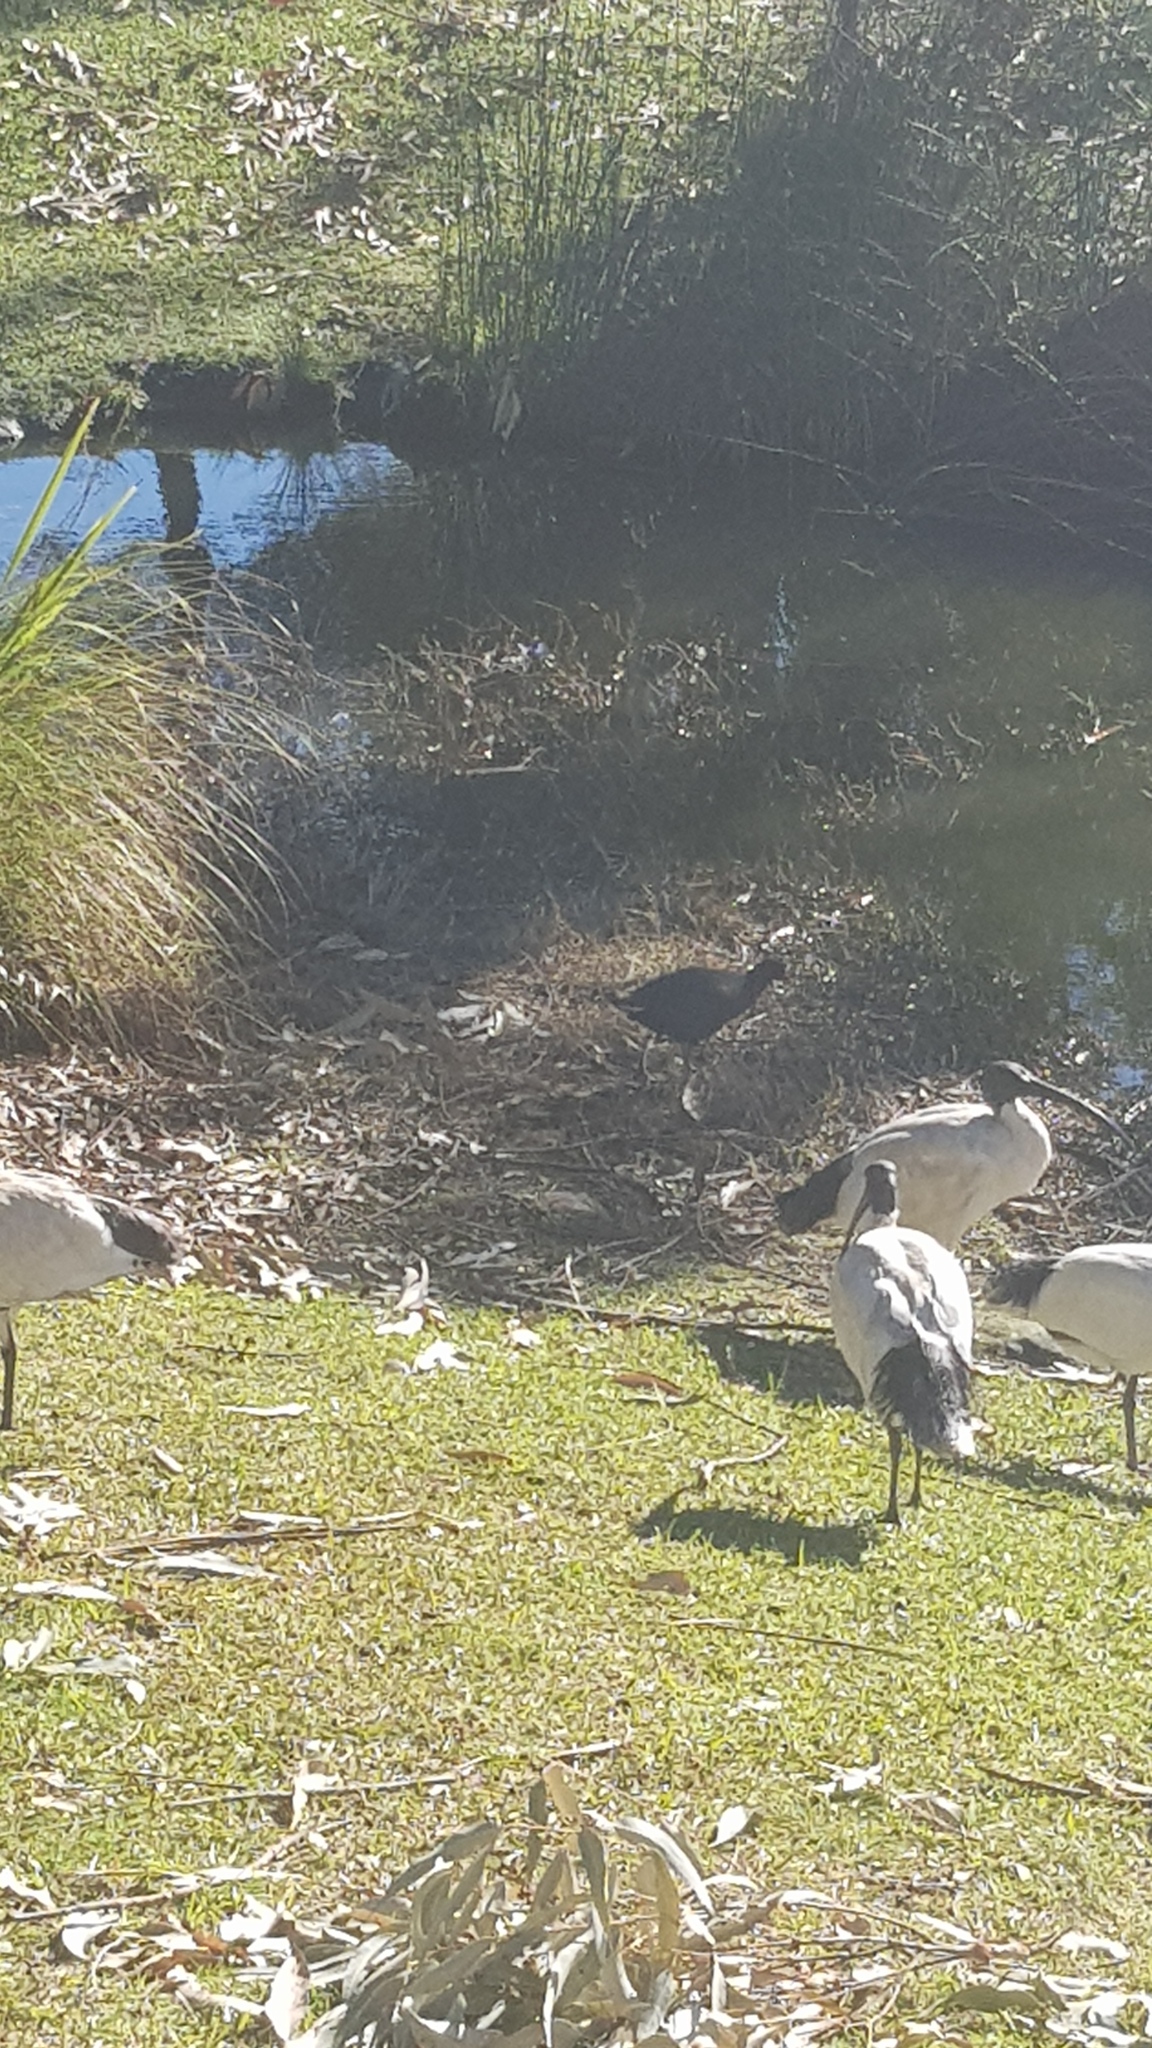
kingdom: Animalia
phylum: Chordata
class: Aves
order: Gruiformes
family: Rallidae
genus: Gallinula
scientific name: Gallinula tenebrosa
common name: Dusky moorhen
